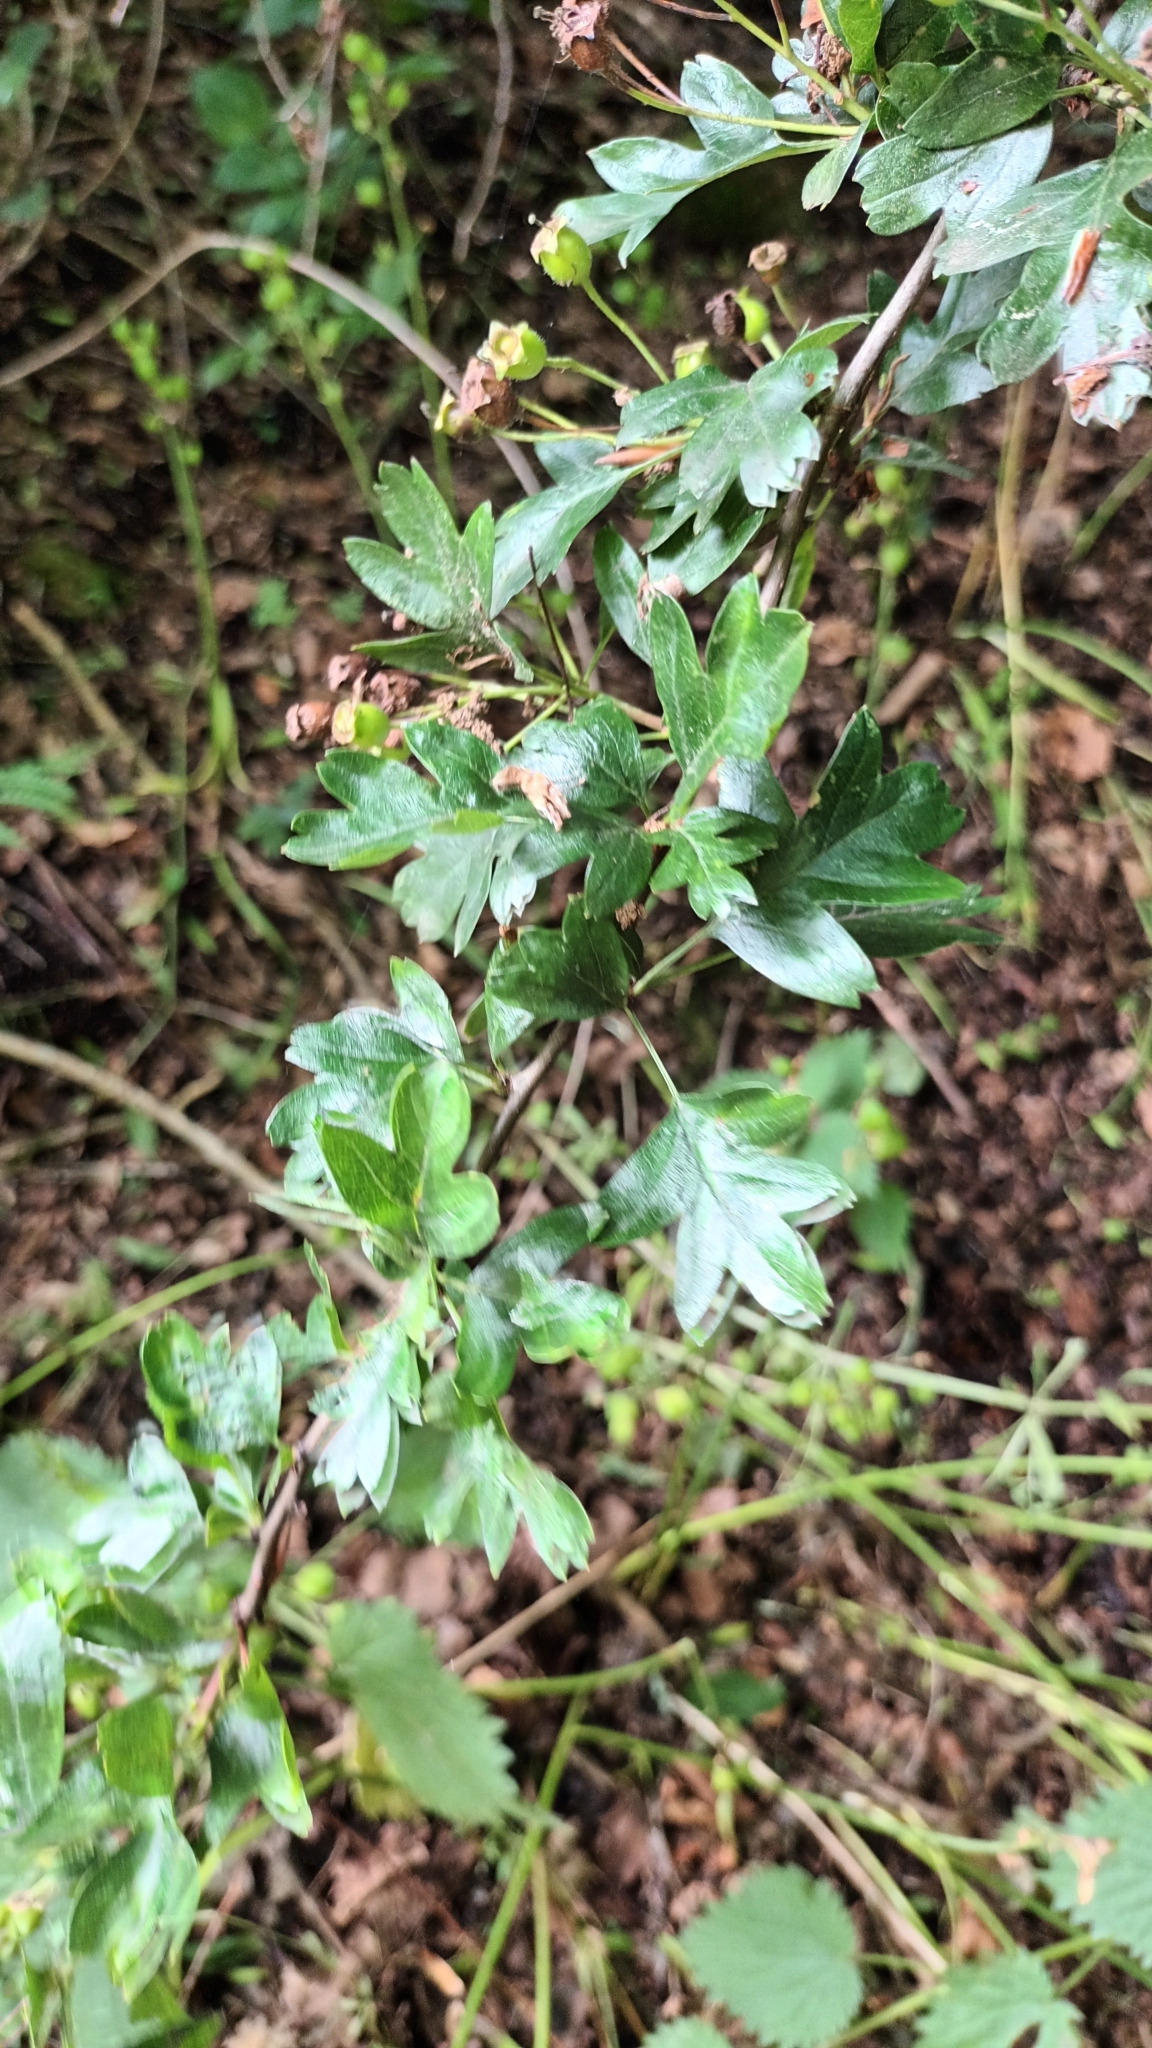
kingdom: Plantae
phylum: Tracheophyta
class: Magnoliopsida
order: Rosales
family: Rosaceae
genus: Crataegus
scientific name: Crataegus monogyna
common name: Hawthorn
